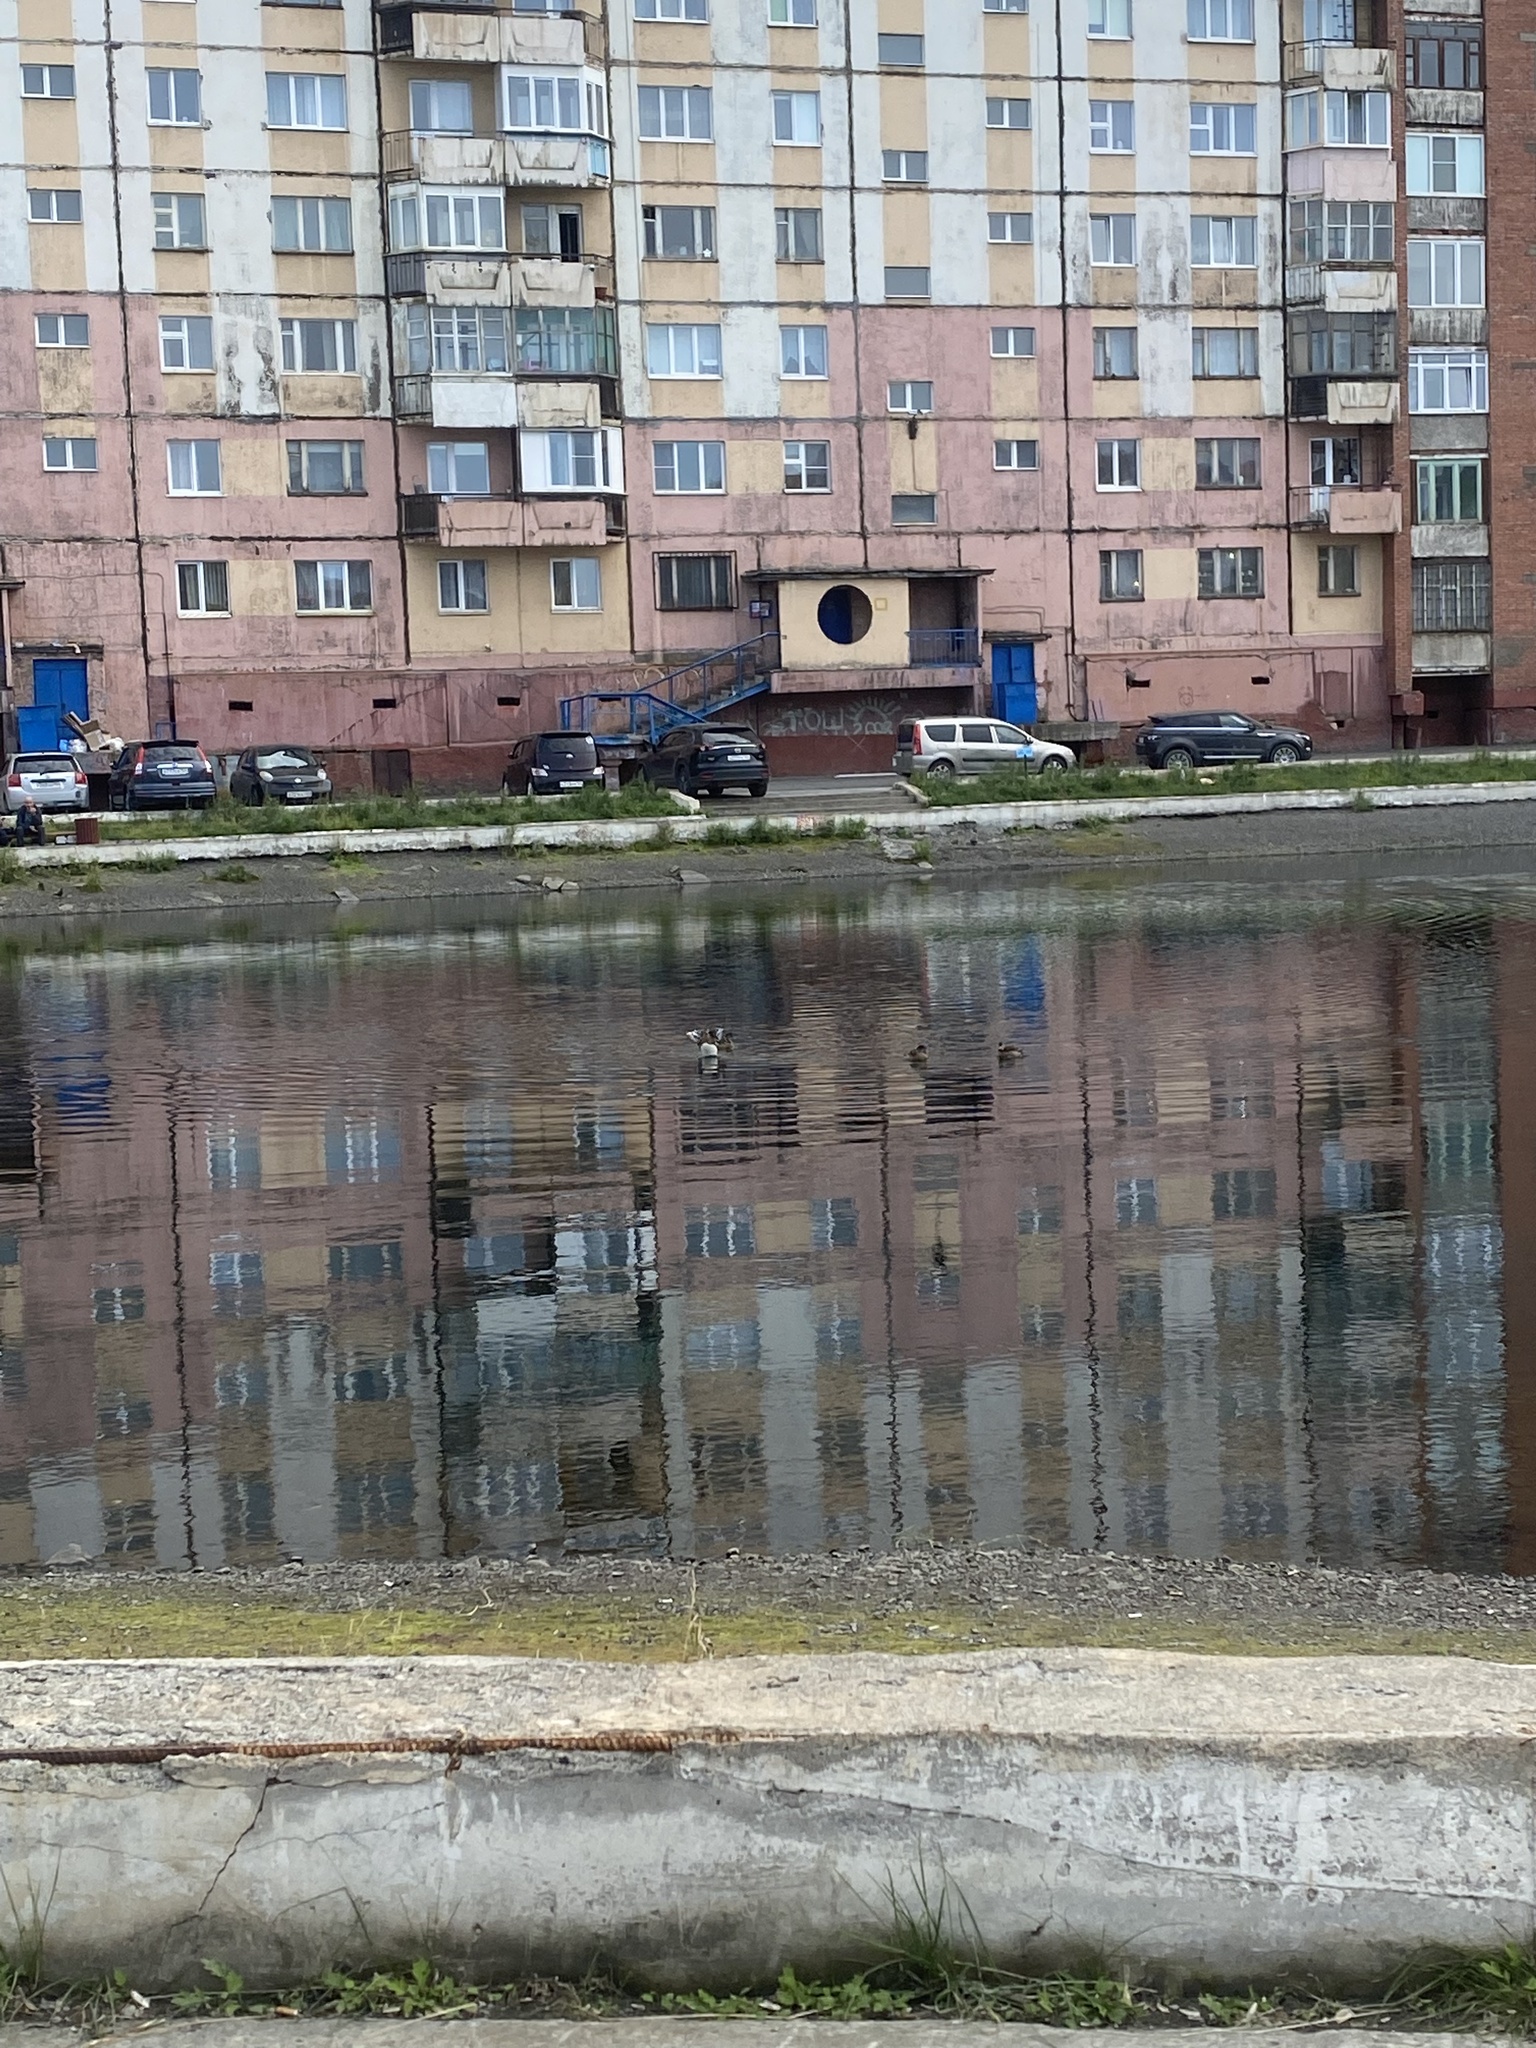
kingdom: Animalia
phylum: Chordata
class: Aves
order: Anseriformes
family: Anatidae
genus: Mareca
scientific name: Mareca penelope
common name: Eurasian wigeon
